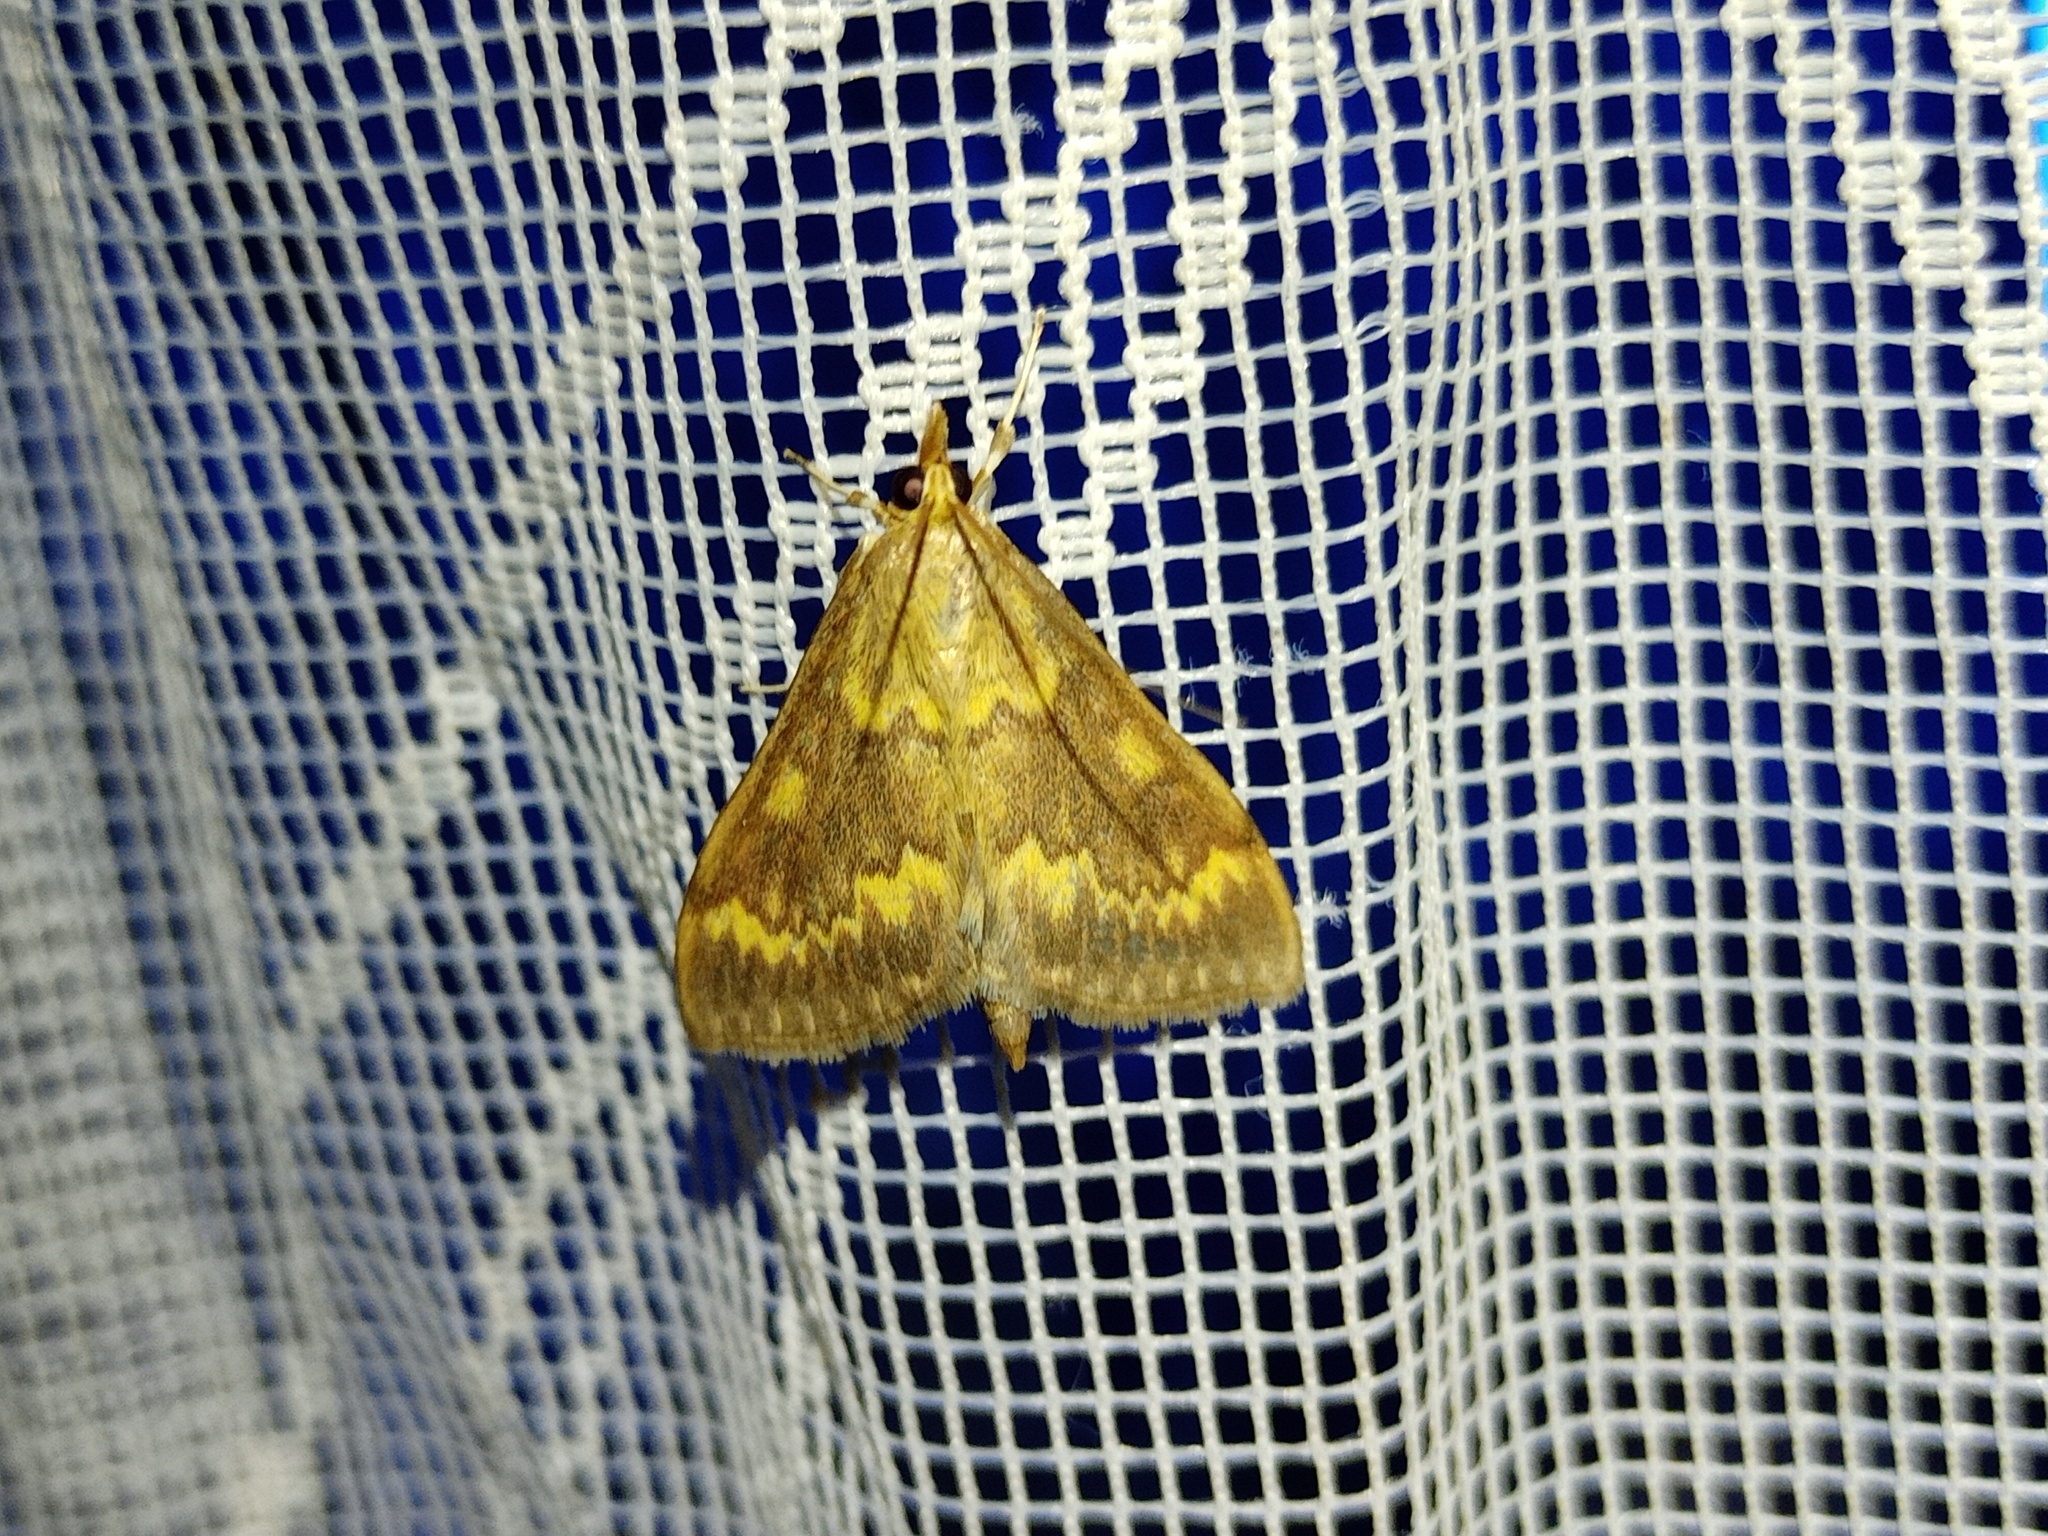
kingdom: Animalia
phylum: Arthropoda
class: Insecta
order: Lepidoptera
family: Crambidae
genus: Ostrinia
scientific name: Ostrinia nubilalis
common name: European corn borer
